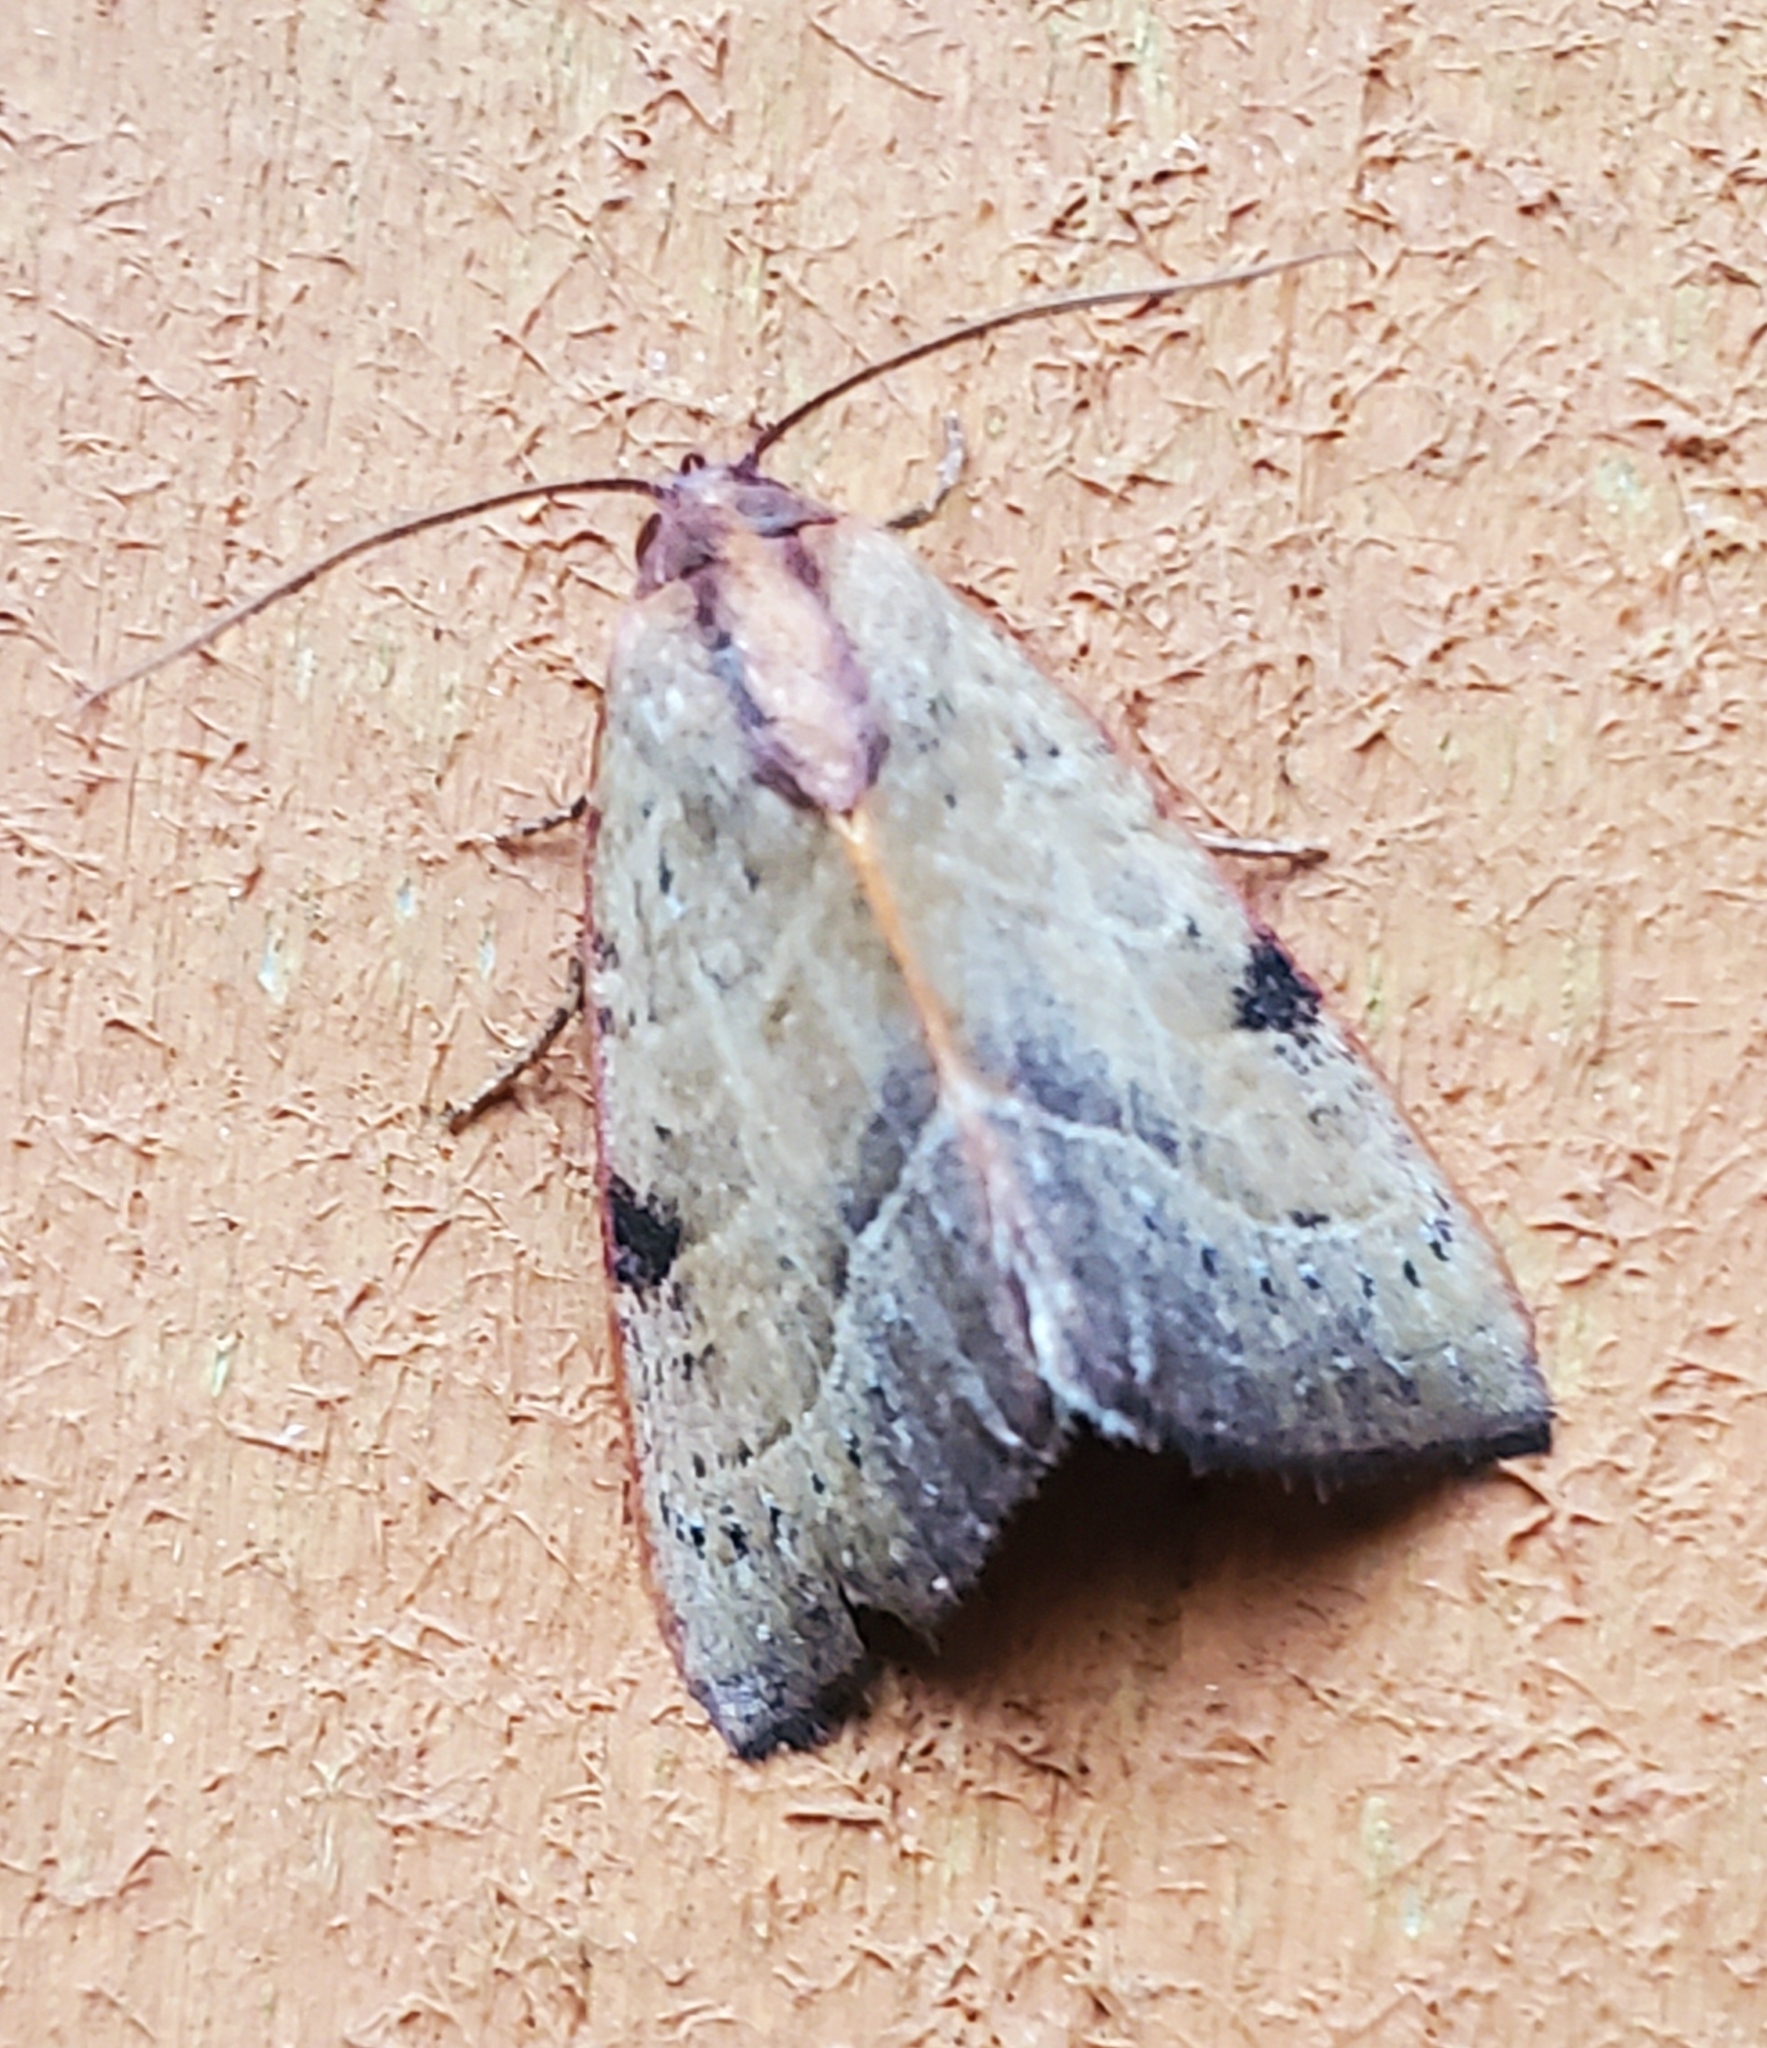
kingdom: Animalia
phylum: Arthropoda
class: Insecta
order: Lepidoptera
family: Noctuidae
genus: Galgula
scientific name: Galgula partita
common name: Wedgeling
